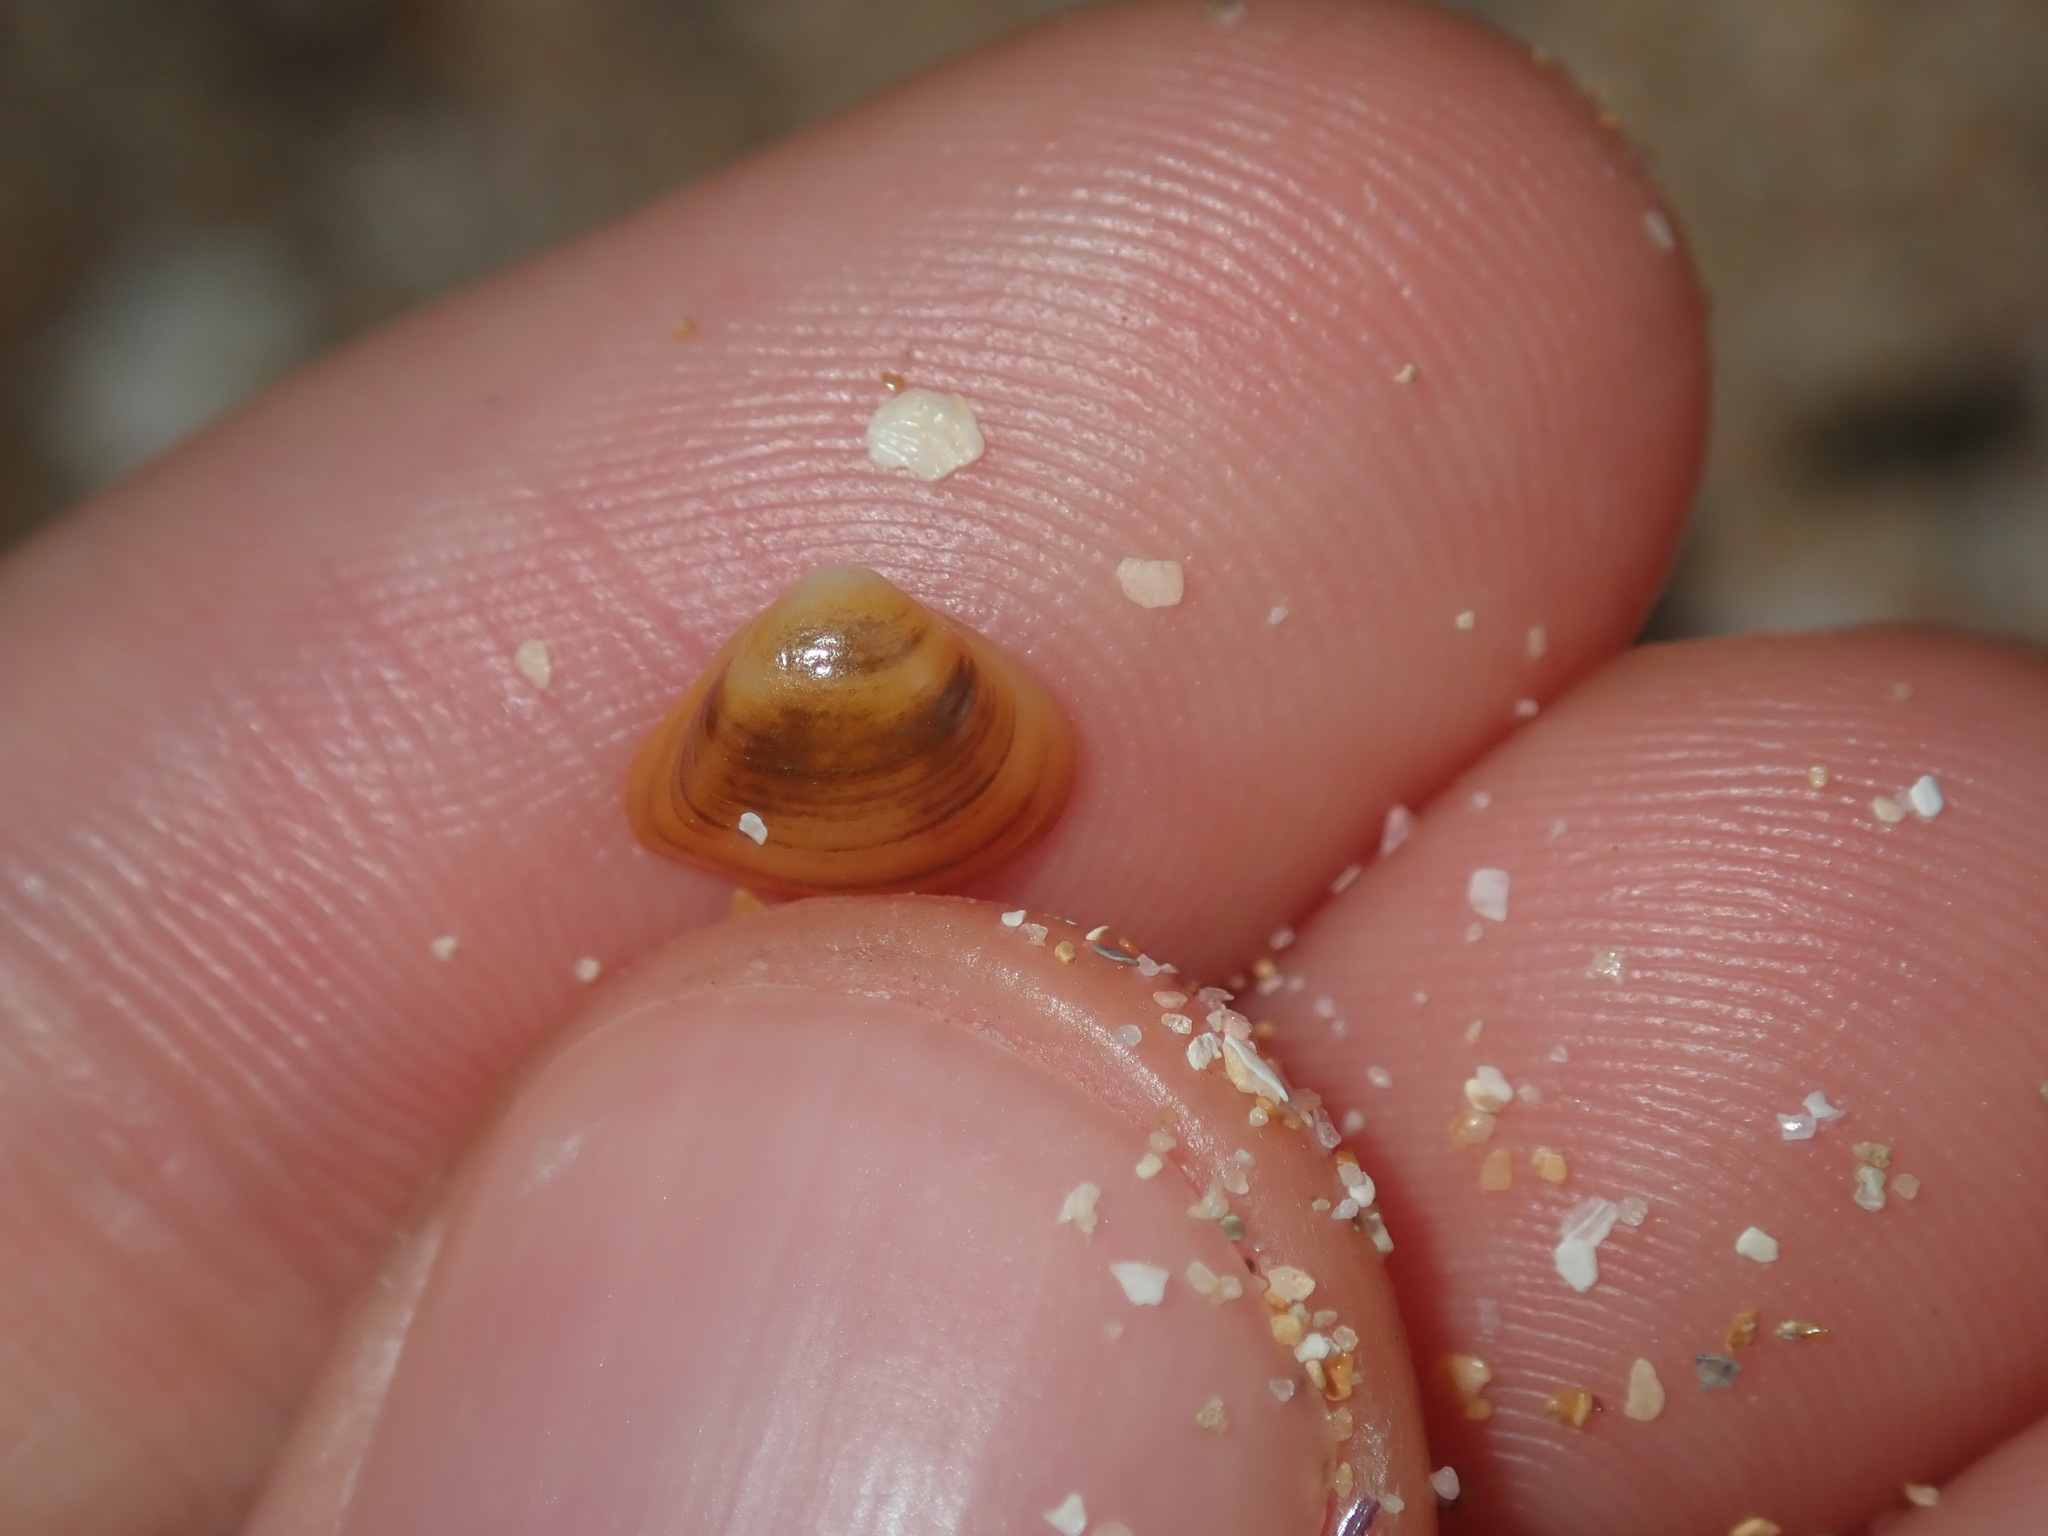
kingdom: Animalia
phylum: Mollusca
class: Bivalvia
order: Venerida
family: Mactridae
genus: Spisula
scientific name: Spisula trigonella
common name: Trigonal mactra
